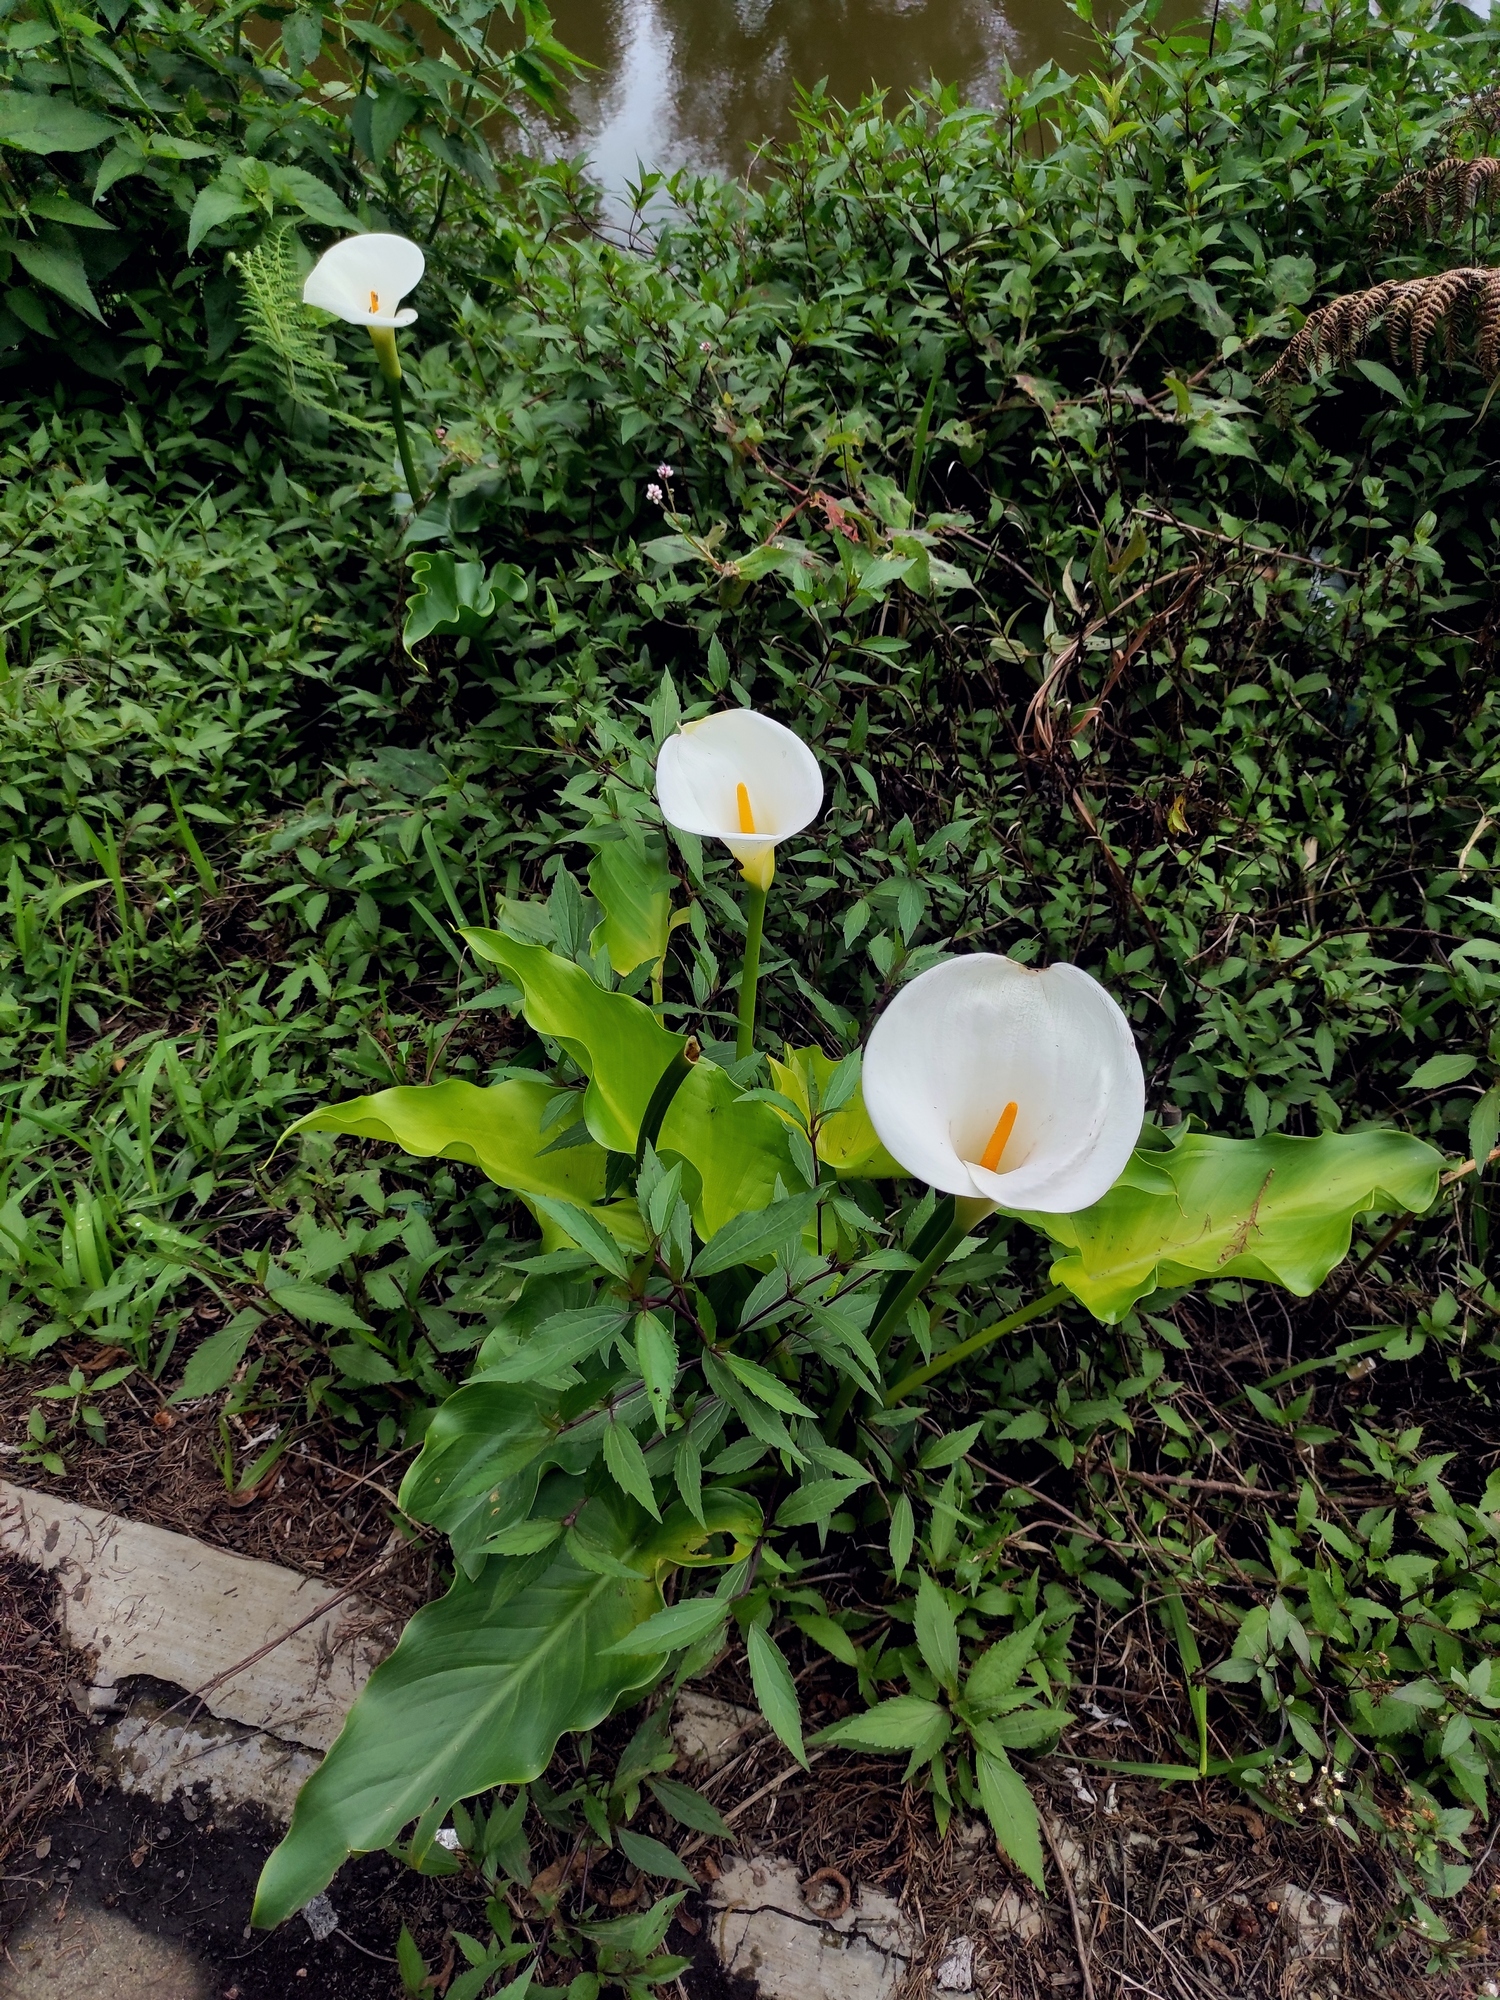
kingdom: Plantae
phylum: Tracheophyta
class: Liliopsida
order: Alismatales
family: Araceae
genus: Zantedeschia
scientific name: Zantedeschia aethiopica
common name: Altar-lily
